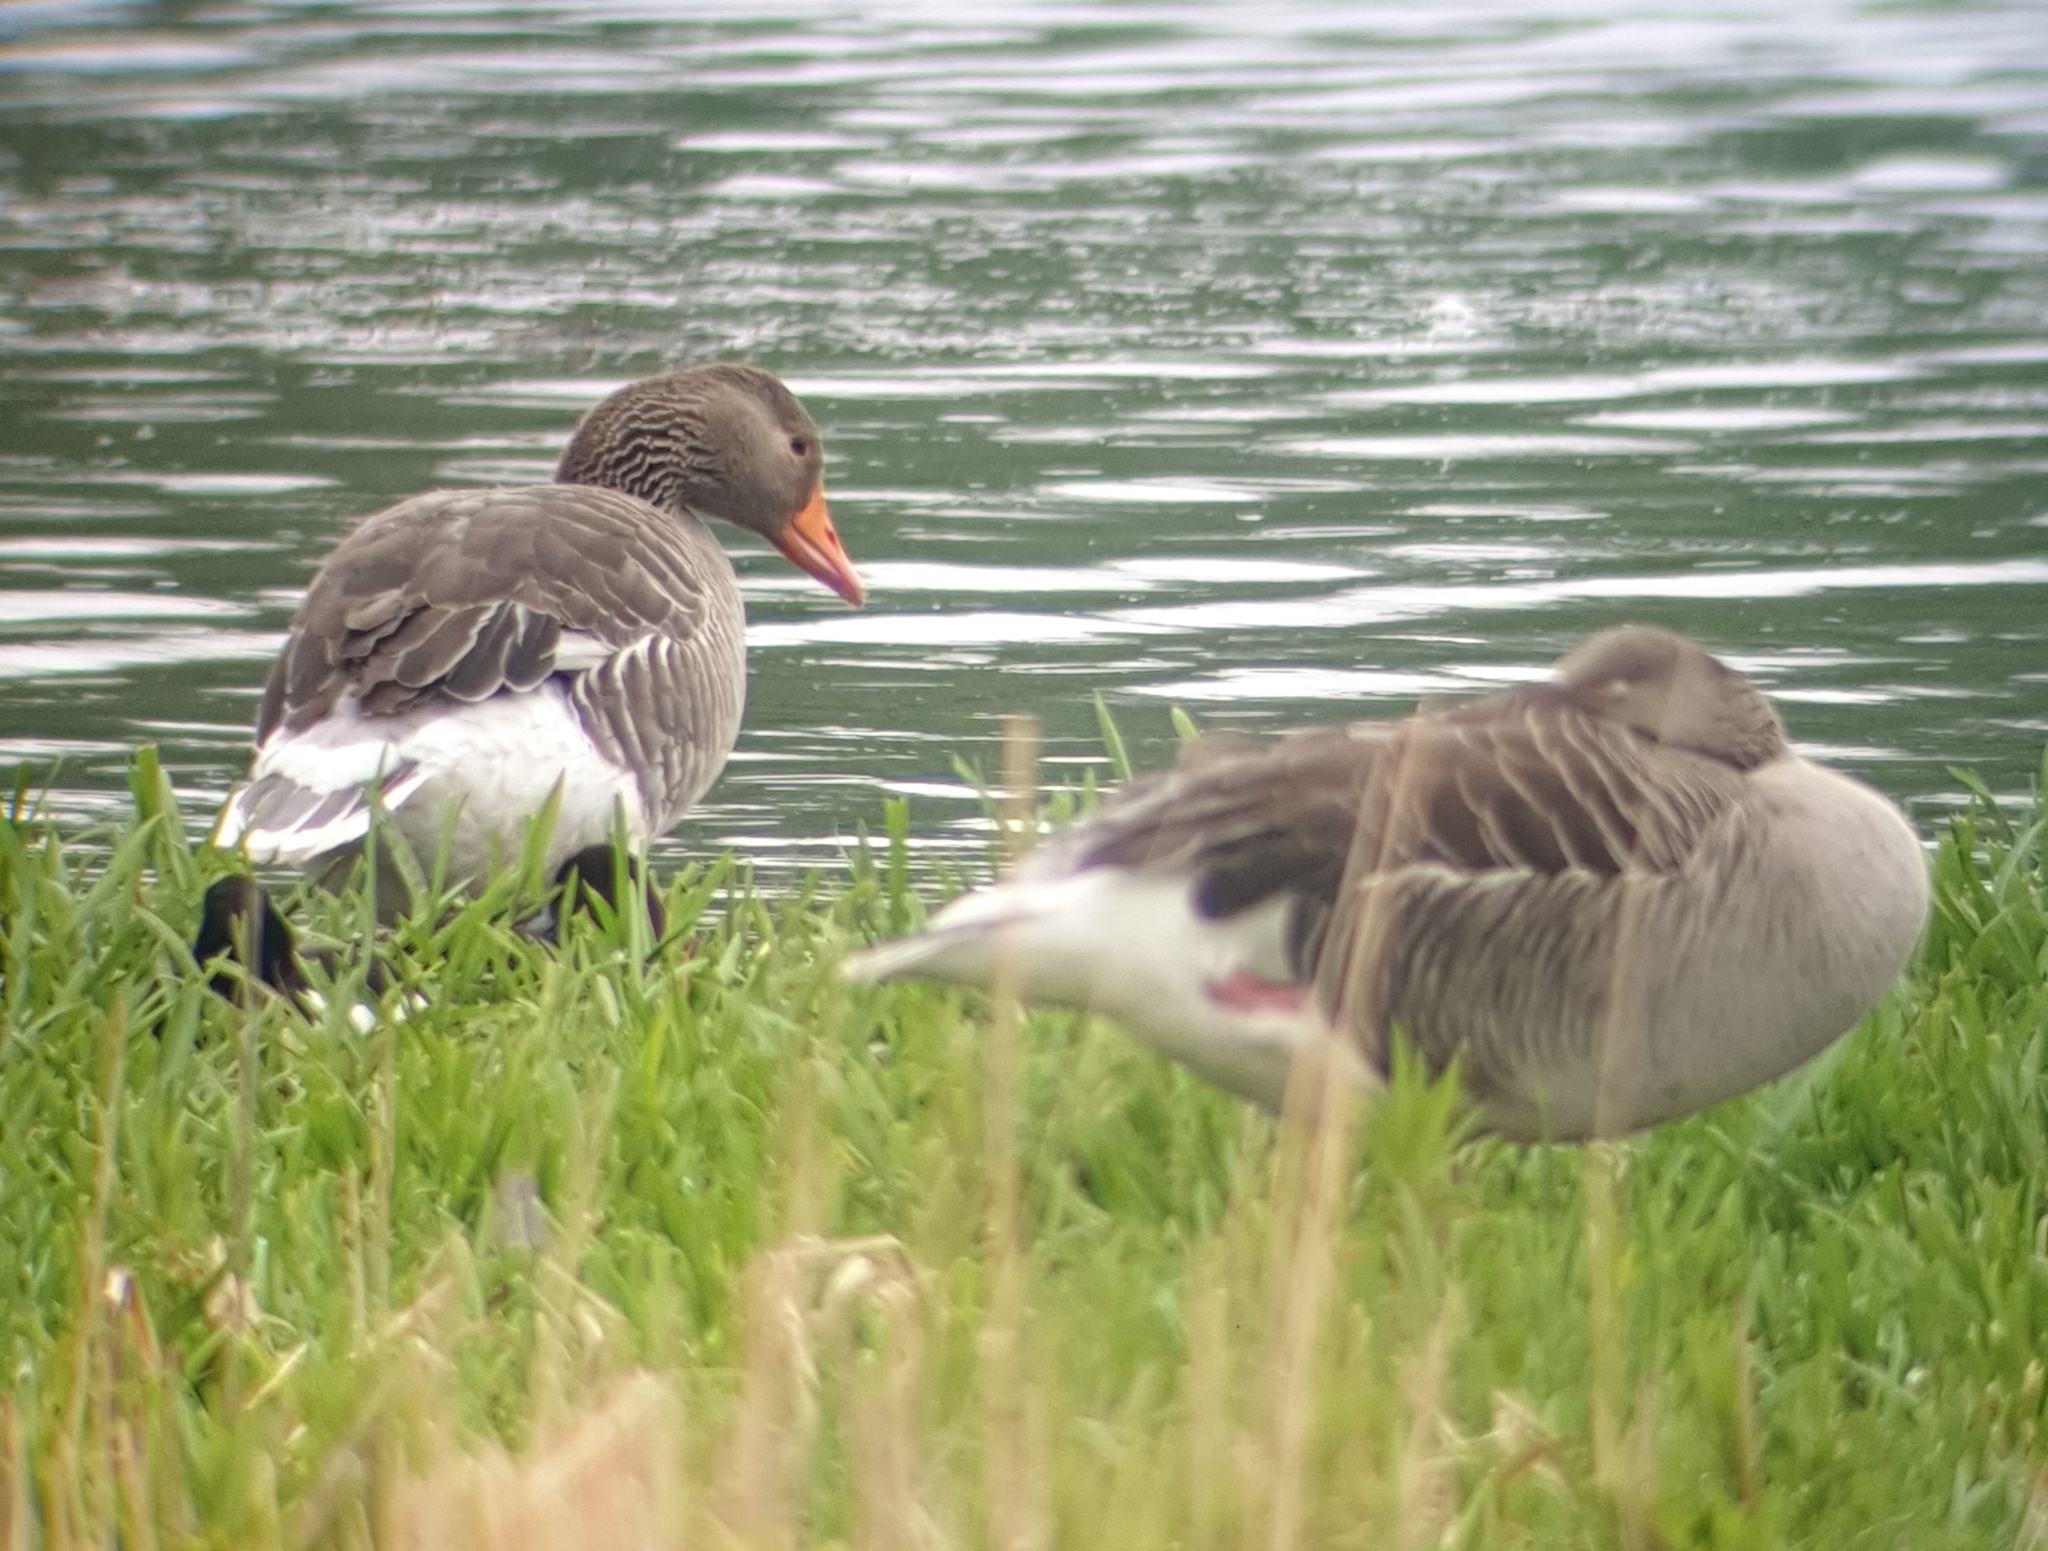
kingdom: Animalia
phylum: Chordata
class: Aves
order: Anseriformes
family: Anatidae
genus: Anser
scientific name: Anser anser
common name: Greylag goose
